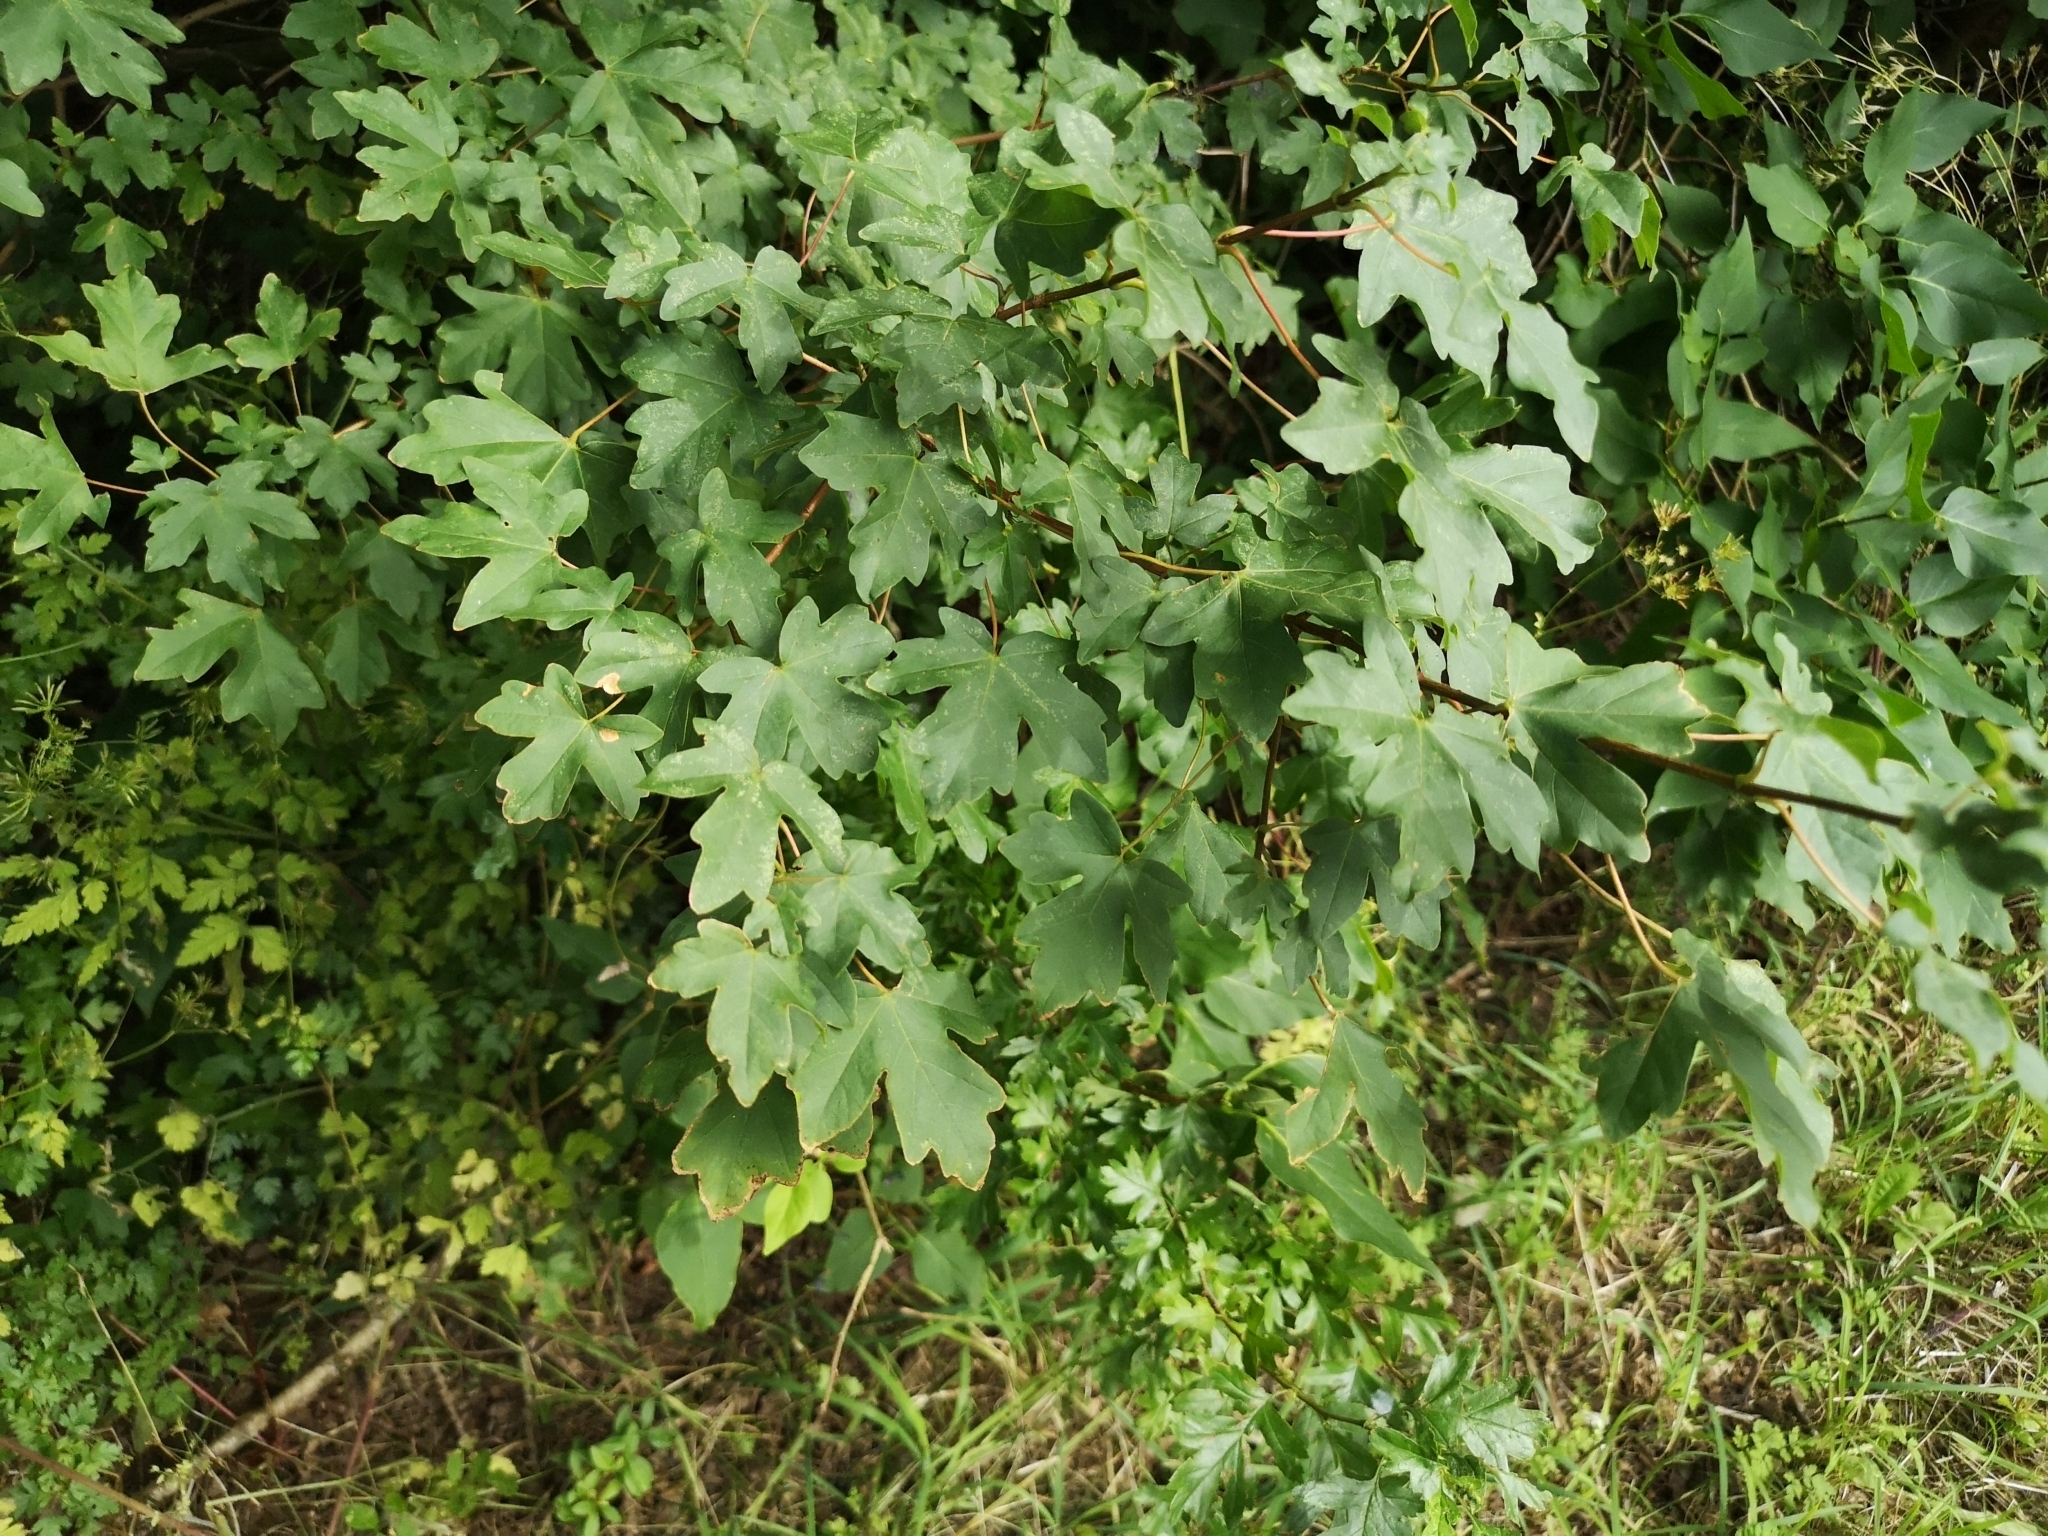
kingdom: Plantae
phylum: Tracheophyta
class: Magnoliopsida
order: Sapindales
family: Sapindaceae
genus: Acer
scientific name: Acer campestre
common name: Field maple
